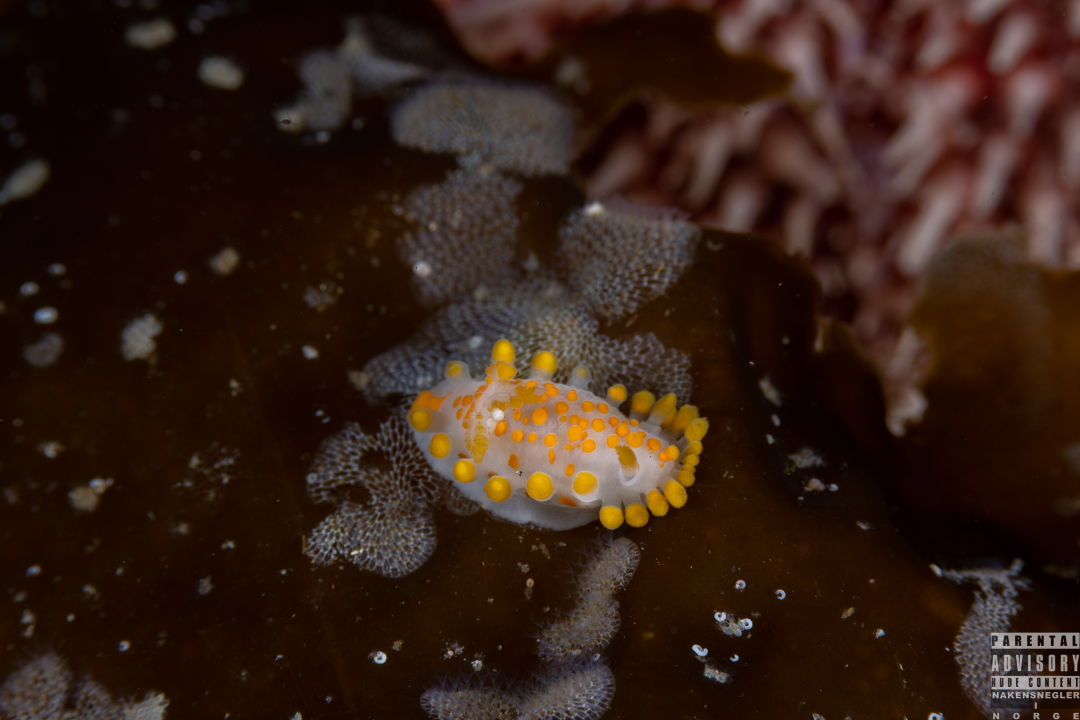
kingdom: Animalia
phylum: Mollusca
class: Gastropoda
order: Nudibranchia
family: Polyceridae
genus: Limacia
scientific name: Limacia clavigera
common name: Orange-clubbed sea slug
